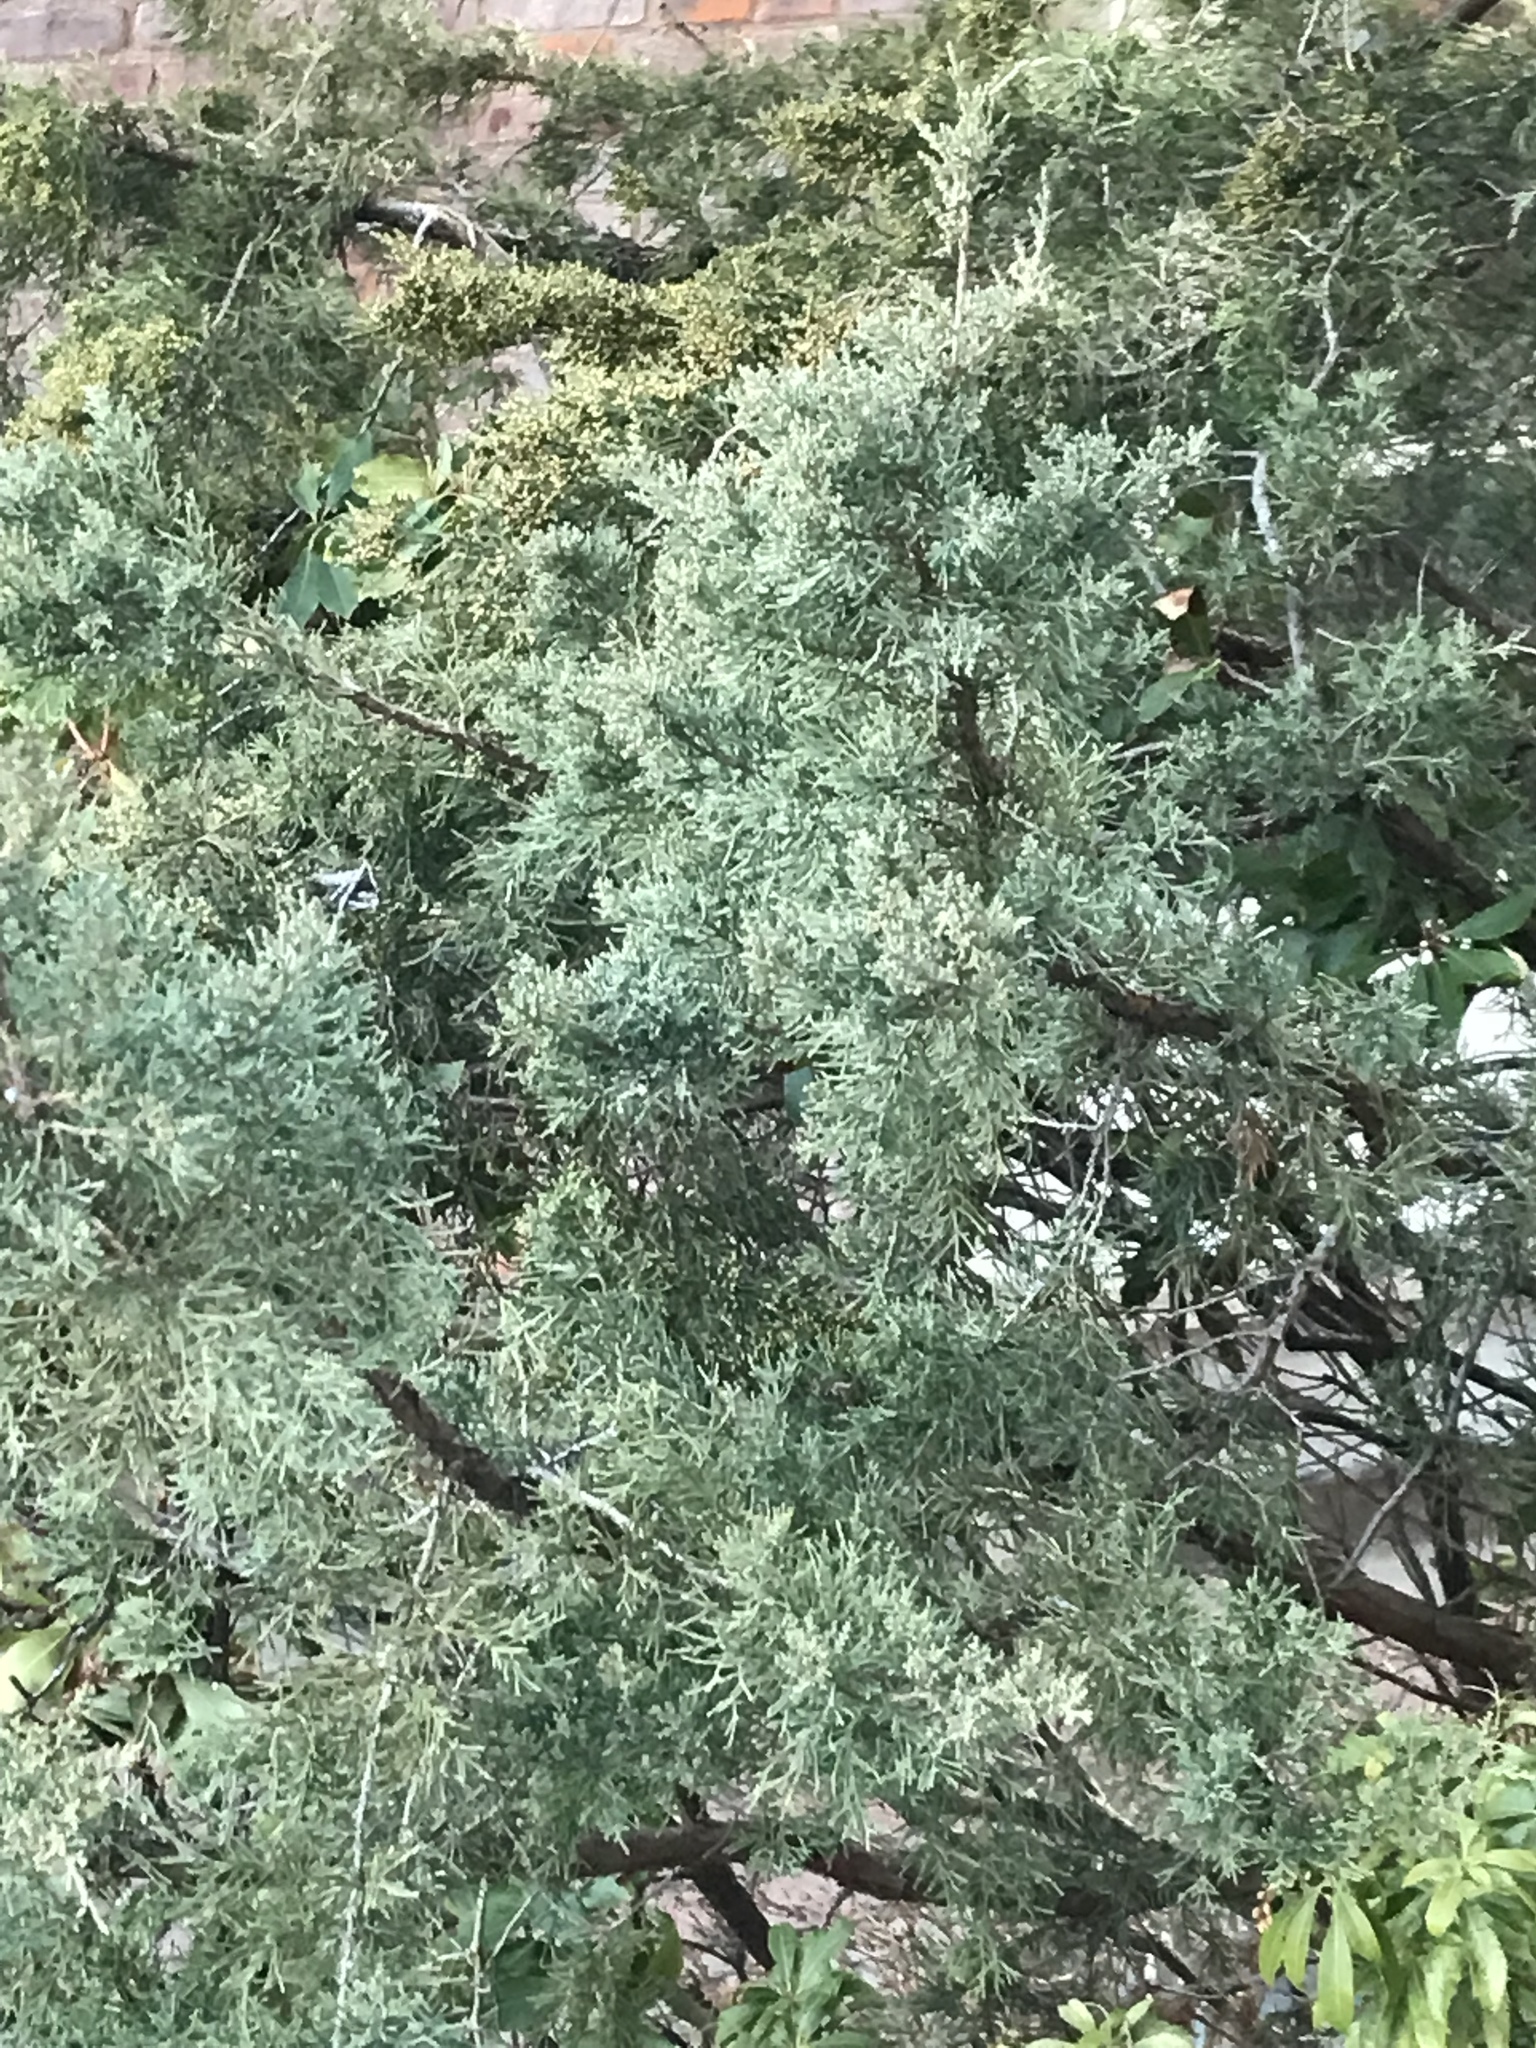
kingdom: Plantae
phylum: Tracheophyta
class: Pinopsida
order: Pinales
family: Cupressaceae
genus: Juniperus
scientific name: Juniperus virginiana
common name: Red juniper
